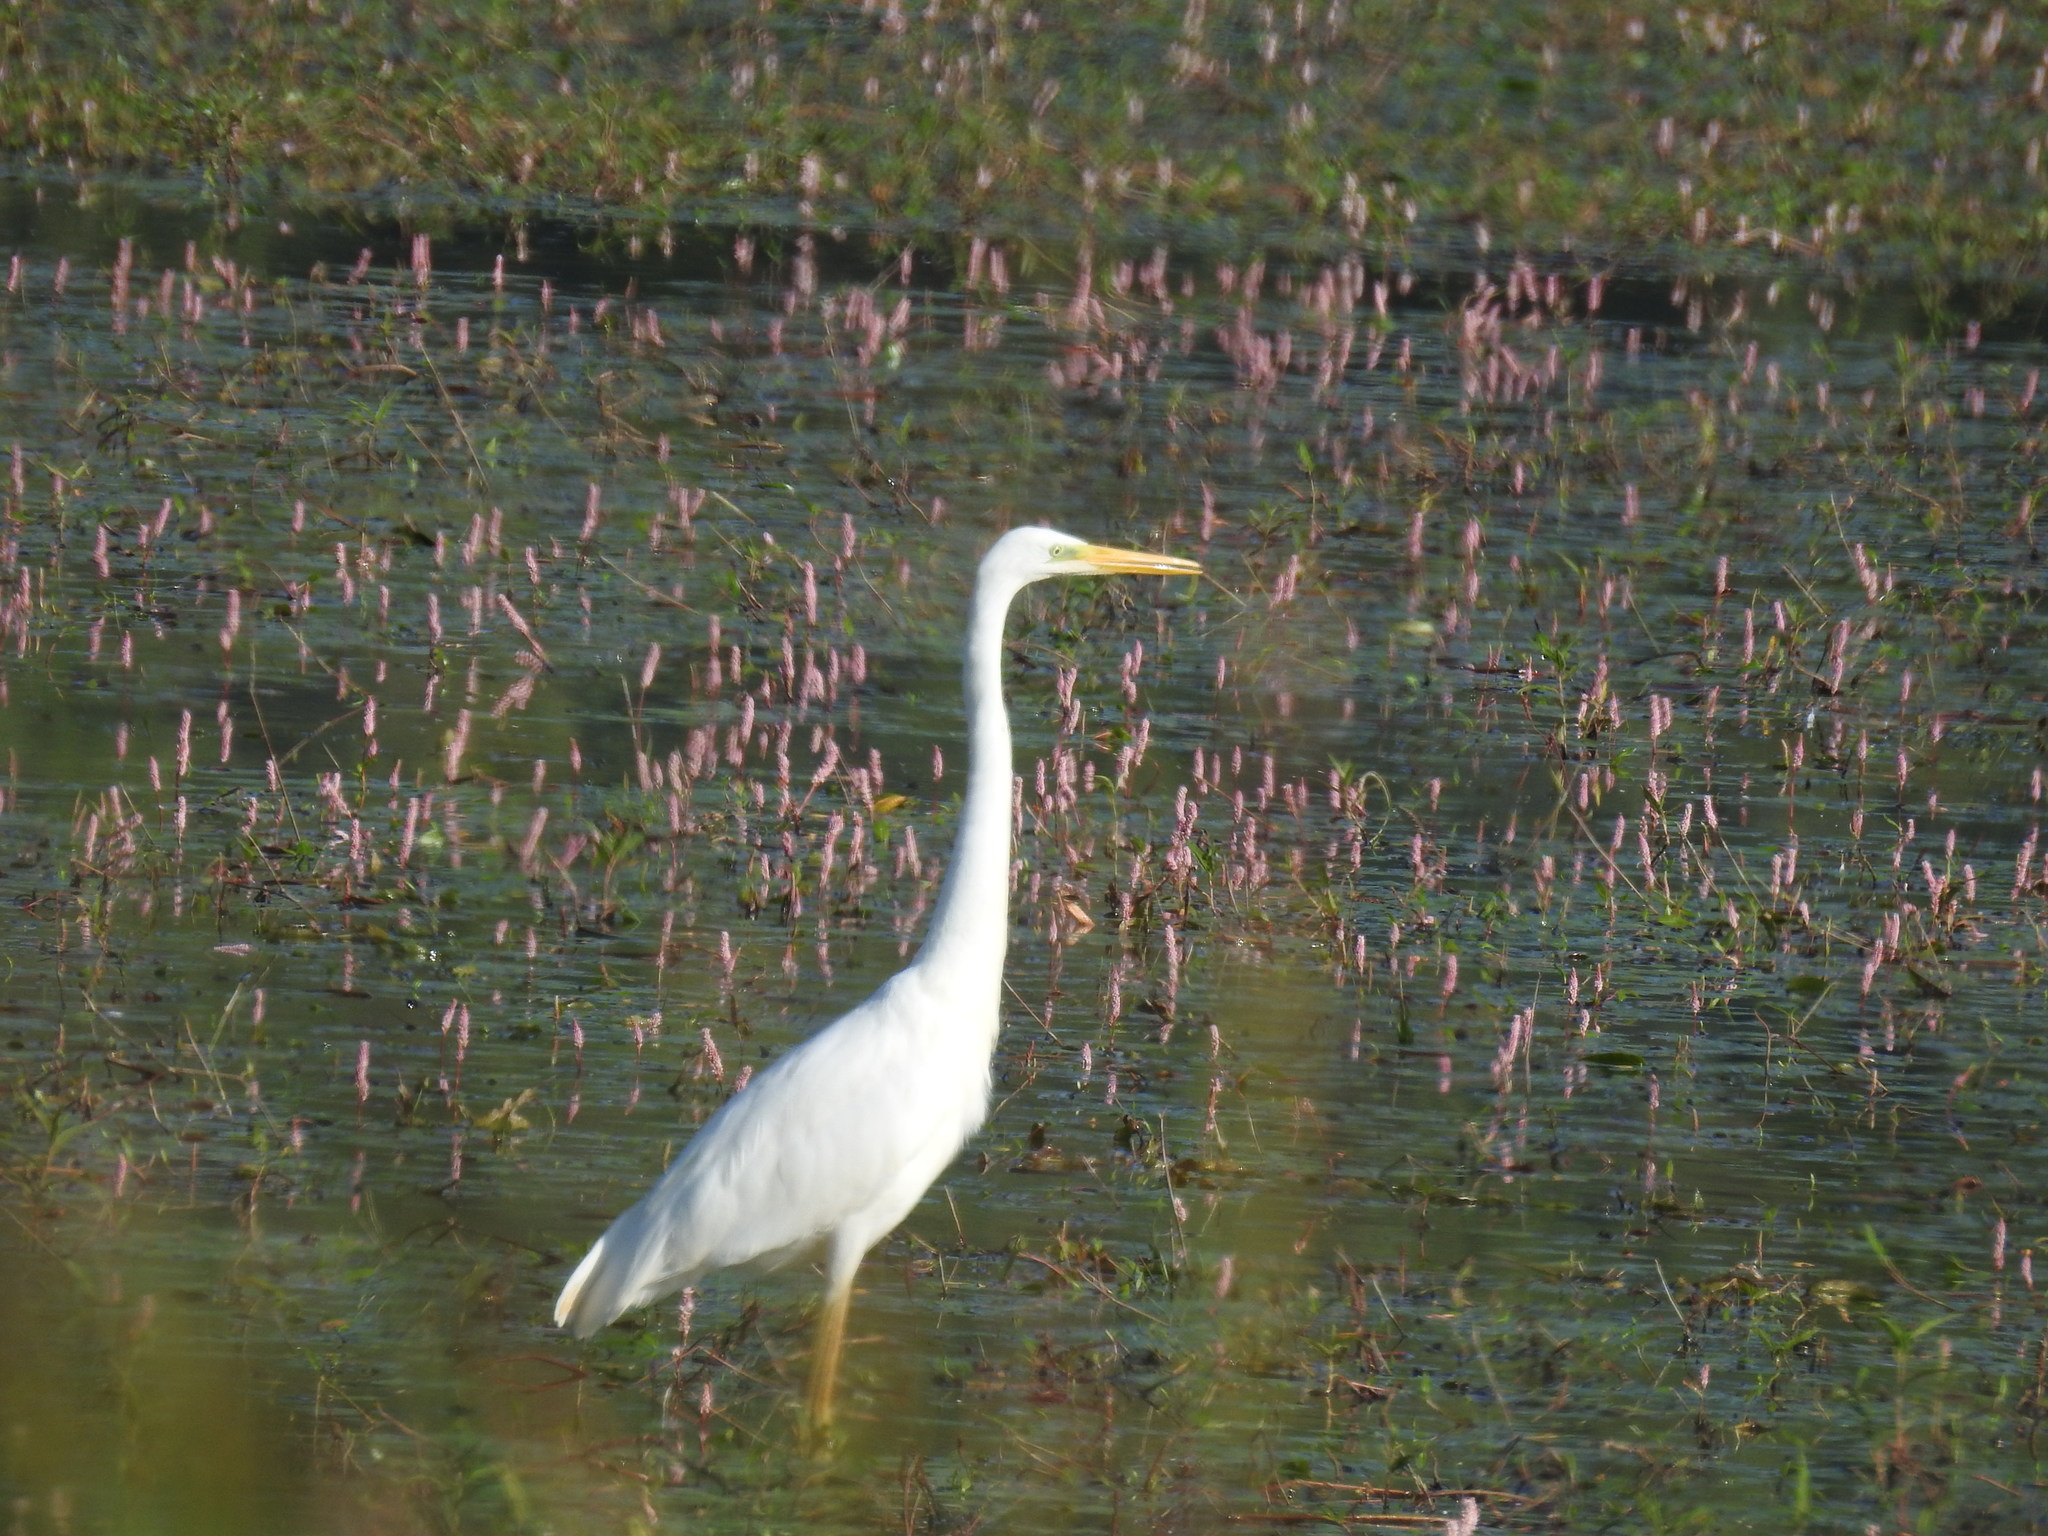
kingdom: Animalia
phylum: Chordata
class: Aves
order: Pelecaniformes
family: Ardeidae
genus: Ardea
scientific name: Ardea alba
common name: Great egret
